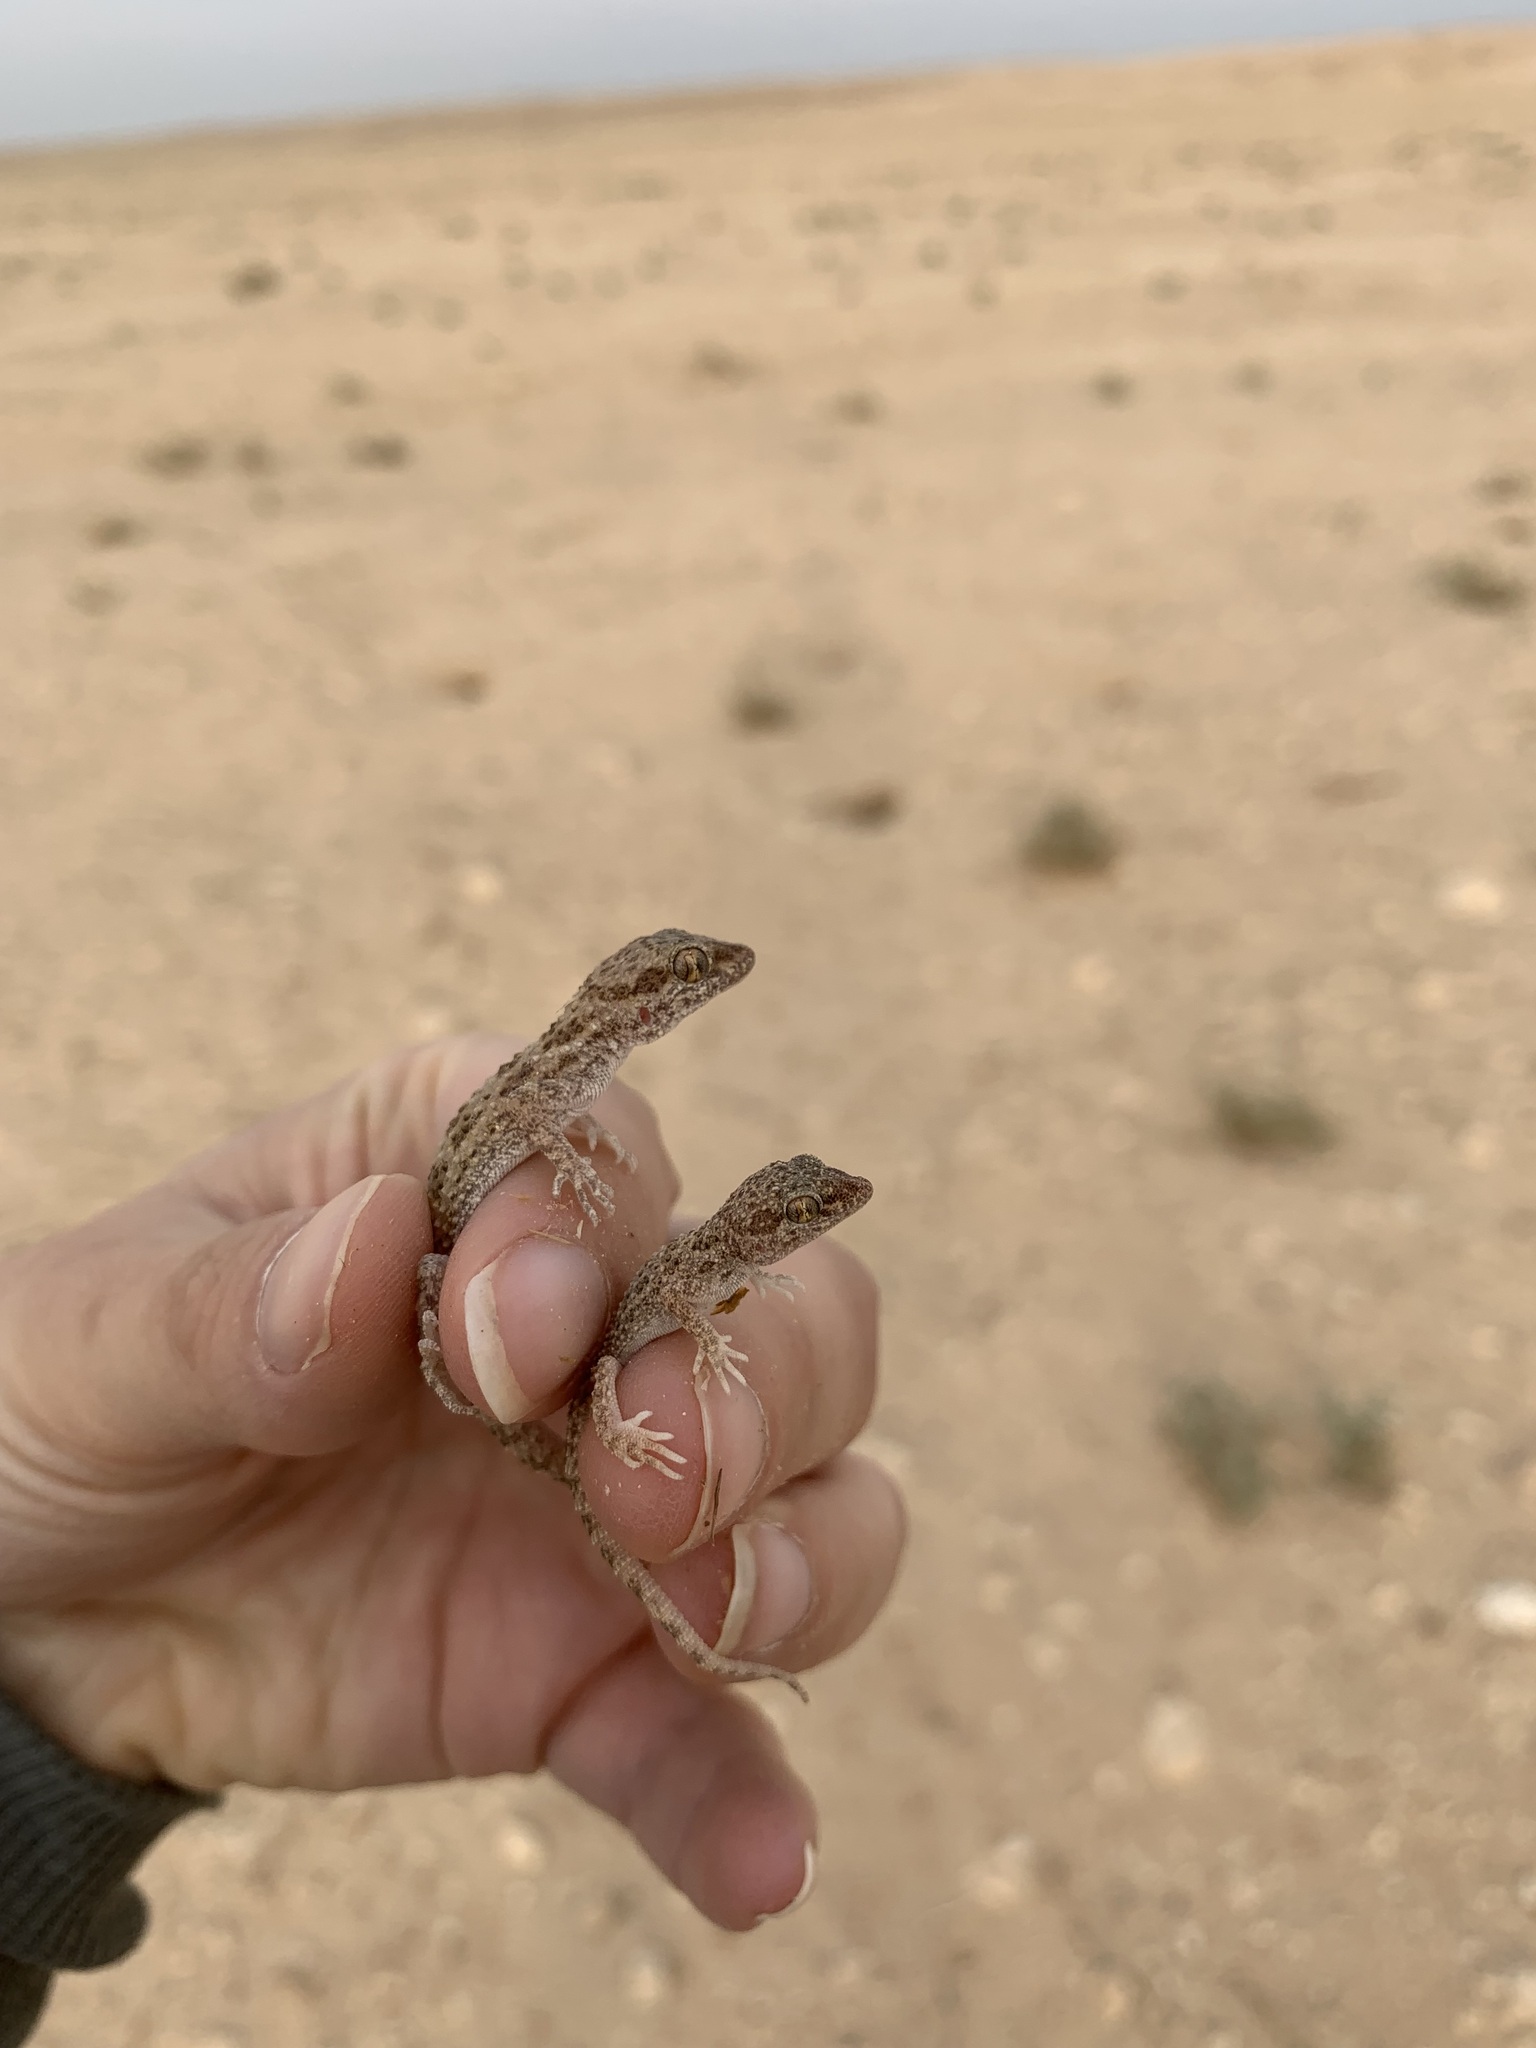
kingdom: Animalia
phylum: Chordata
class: Squamata
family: Gekkonidae
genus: Bunopus
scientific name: Bunopus tuberculatus
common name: Southern tuberculated gecko
